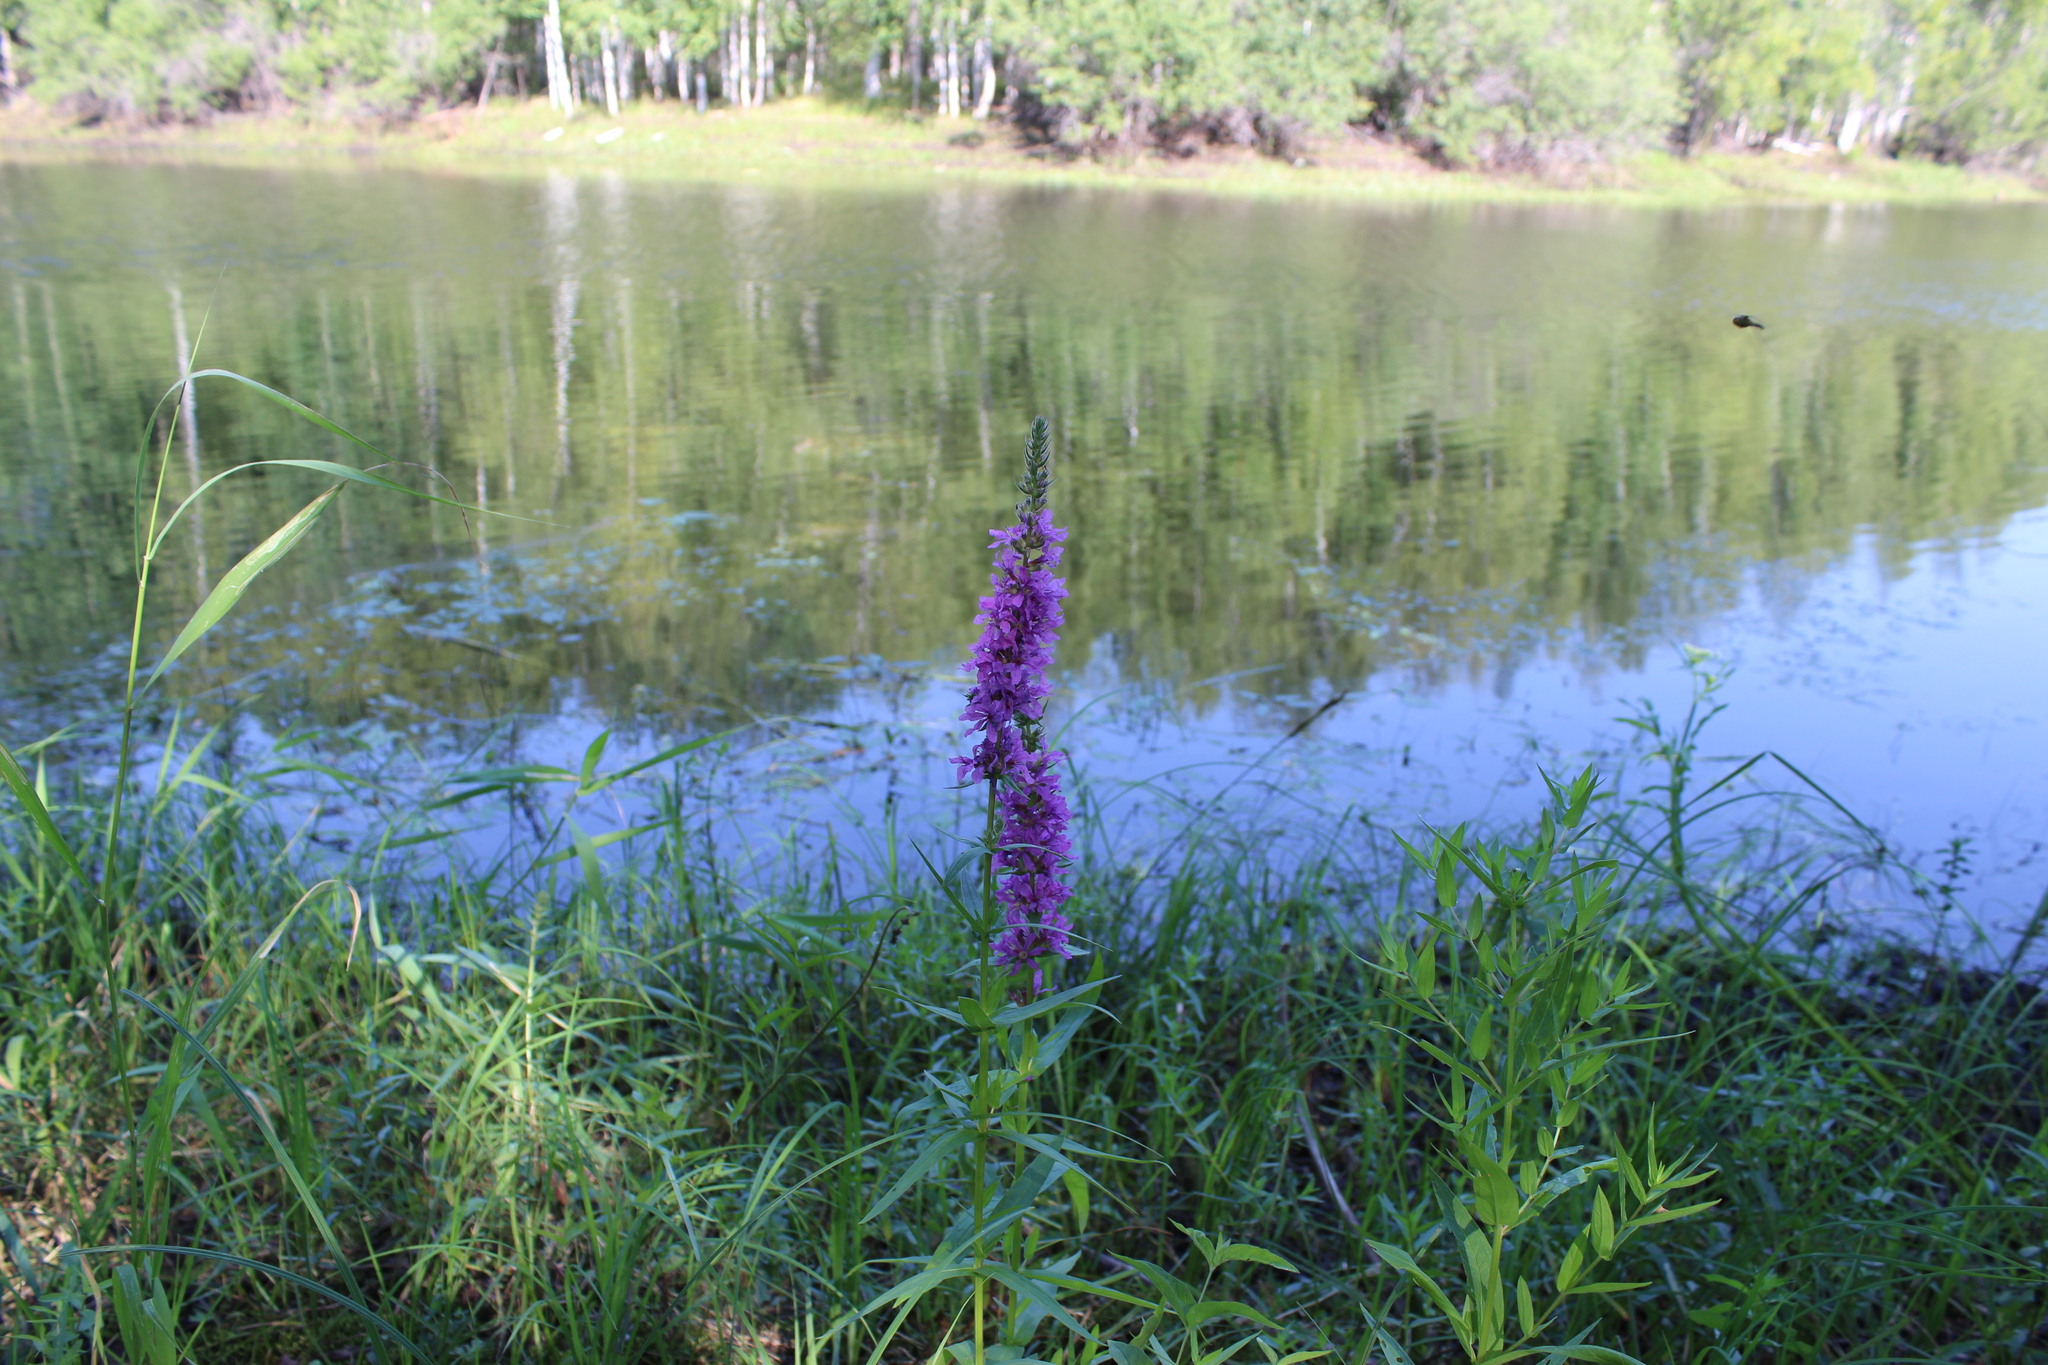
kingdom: Plantae
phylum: Tracheophyta
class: Magnoliopsida
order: Myrtales
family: Lythraceae
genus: Lythrum
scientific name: Lythrum salicaria
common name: Purple loosestrife
